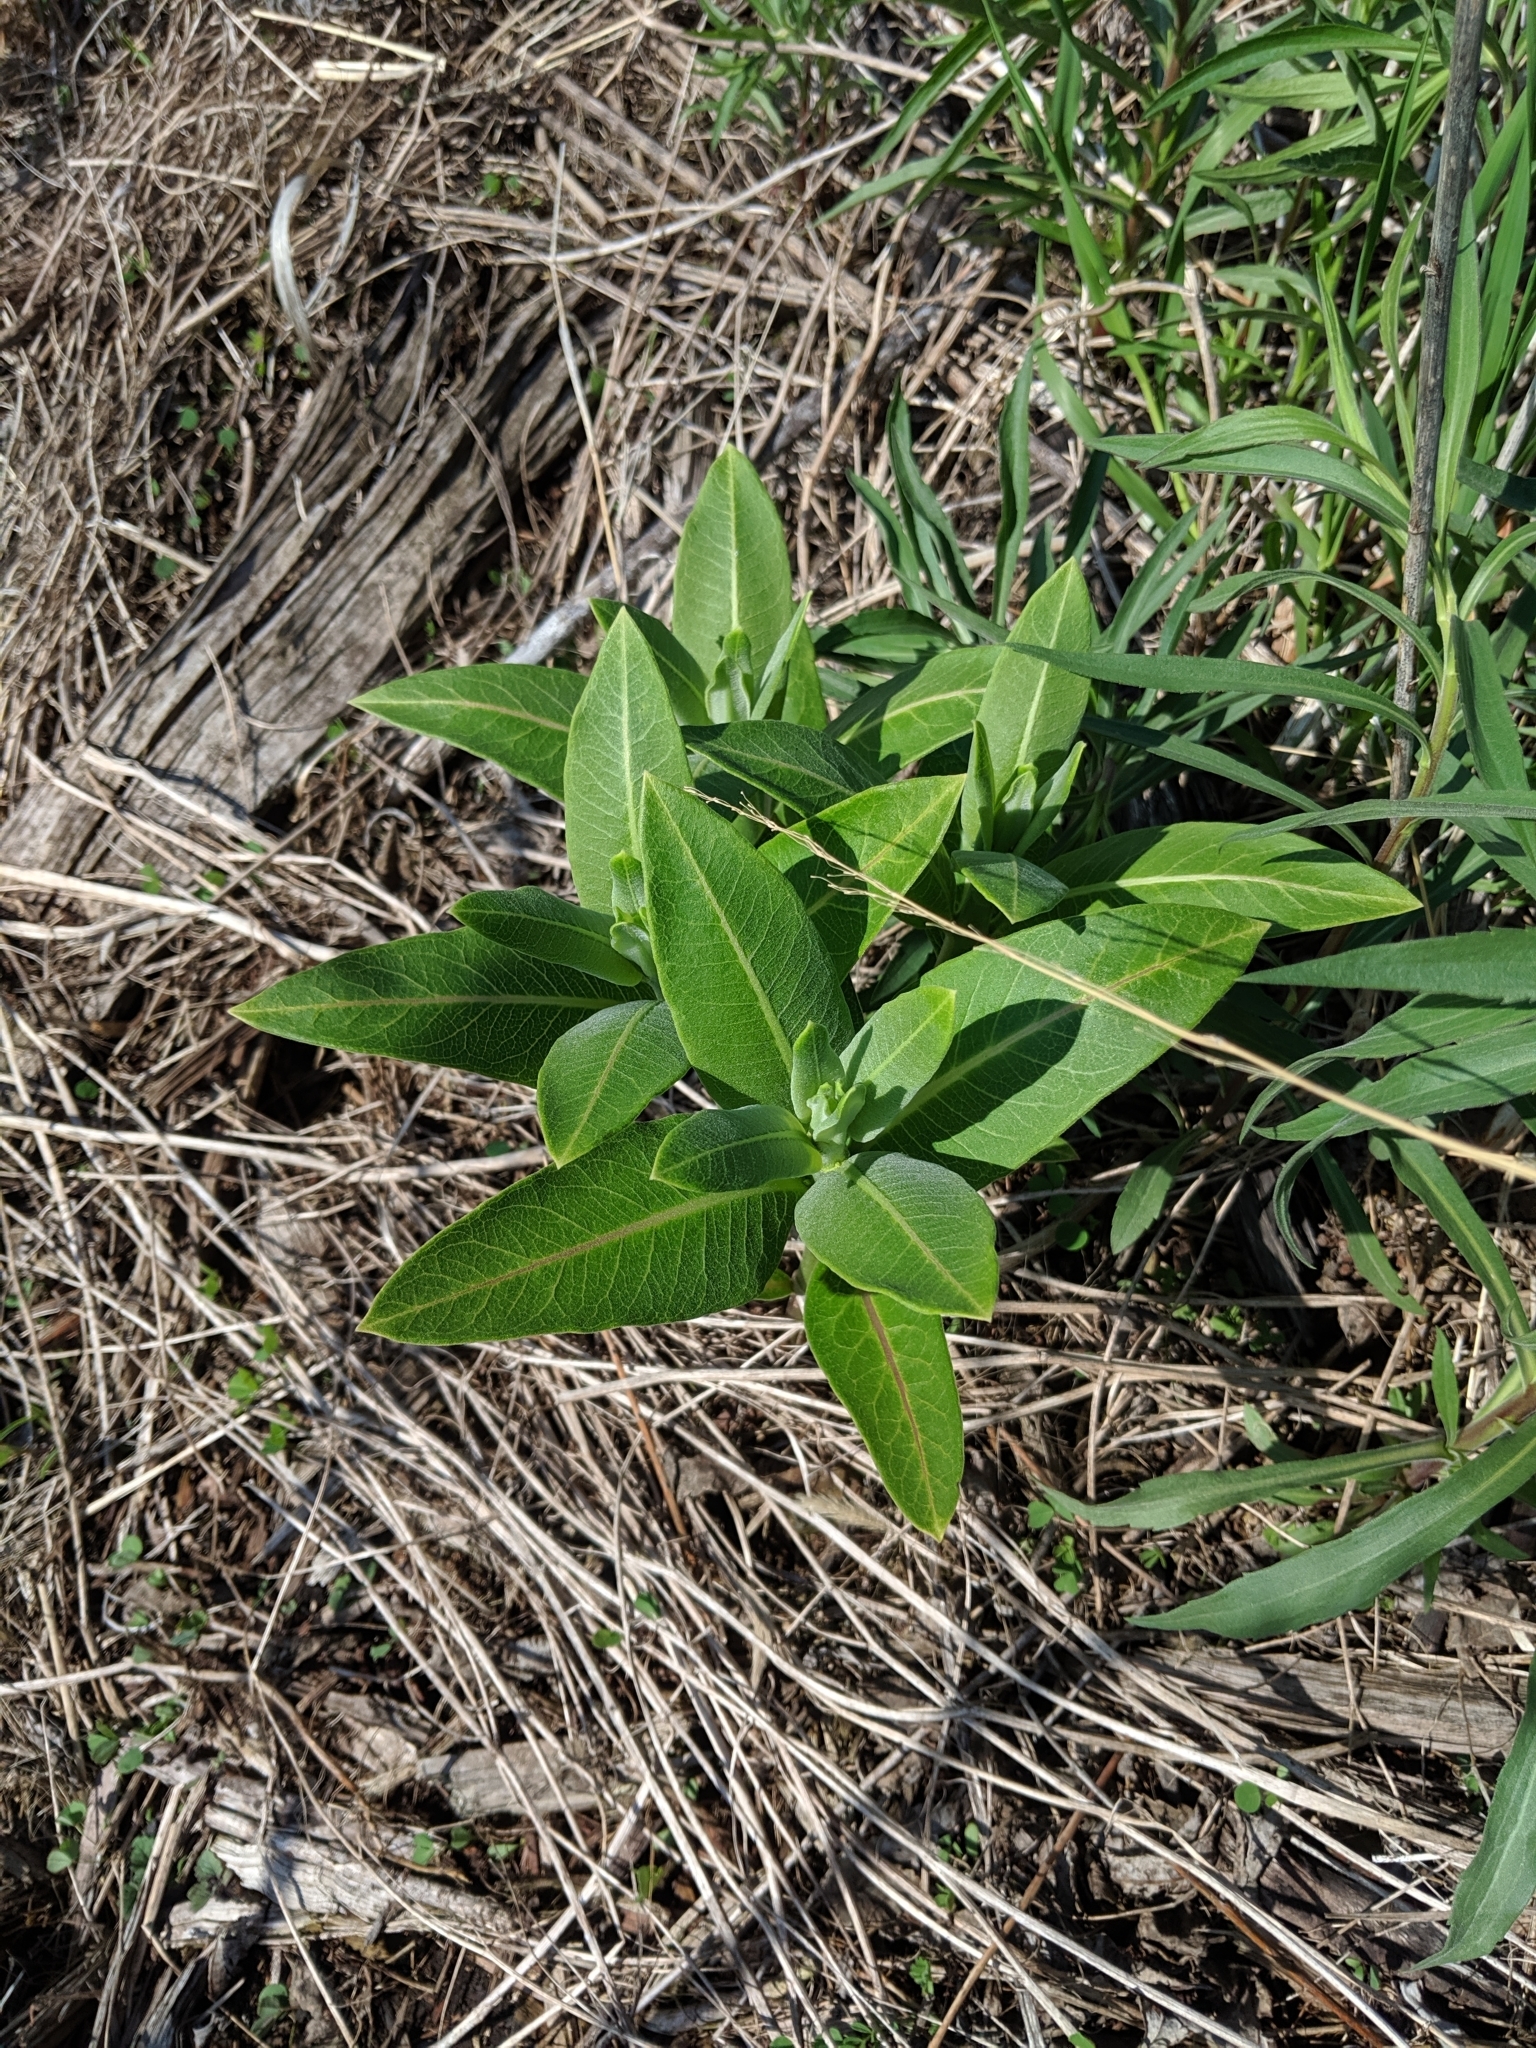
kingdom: Plantae
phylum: Tracheophyta
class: Magnoliopsida
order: Gentianales
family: Apocynaceae
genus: Asclepias
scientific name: Asclepias syriaca
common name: Common milkweed
